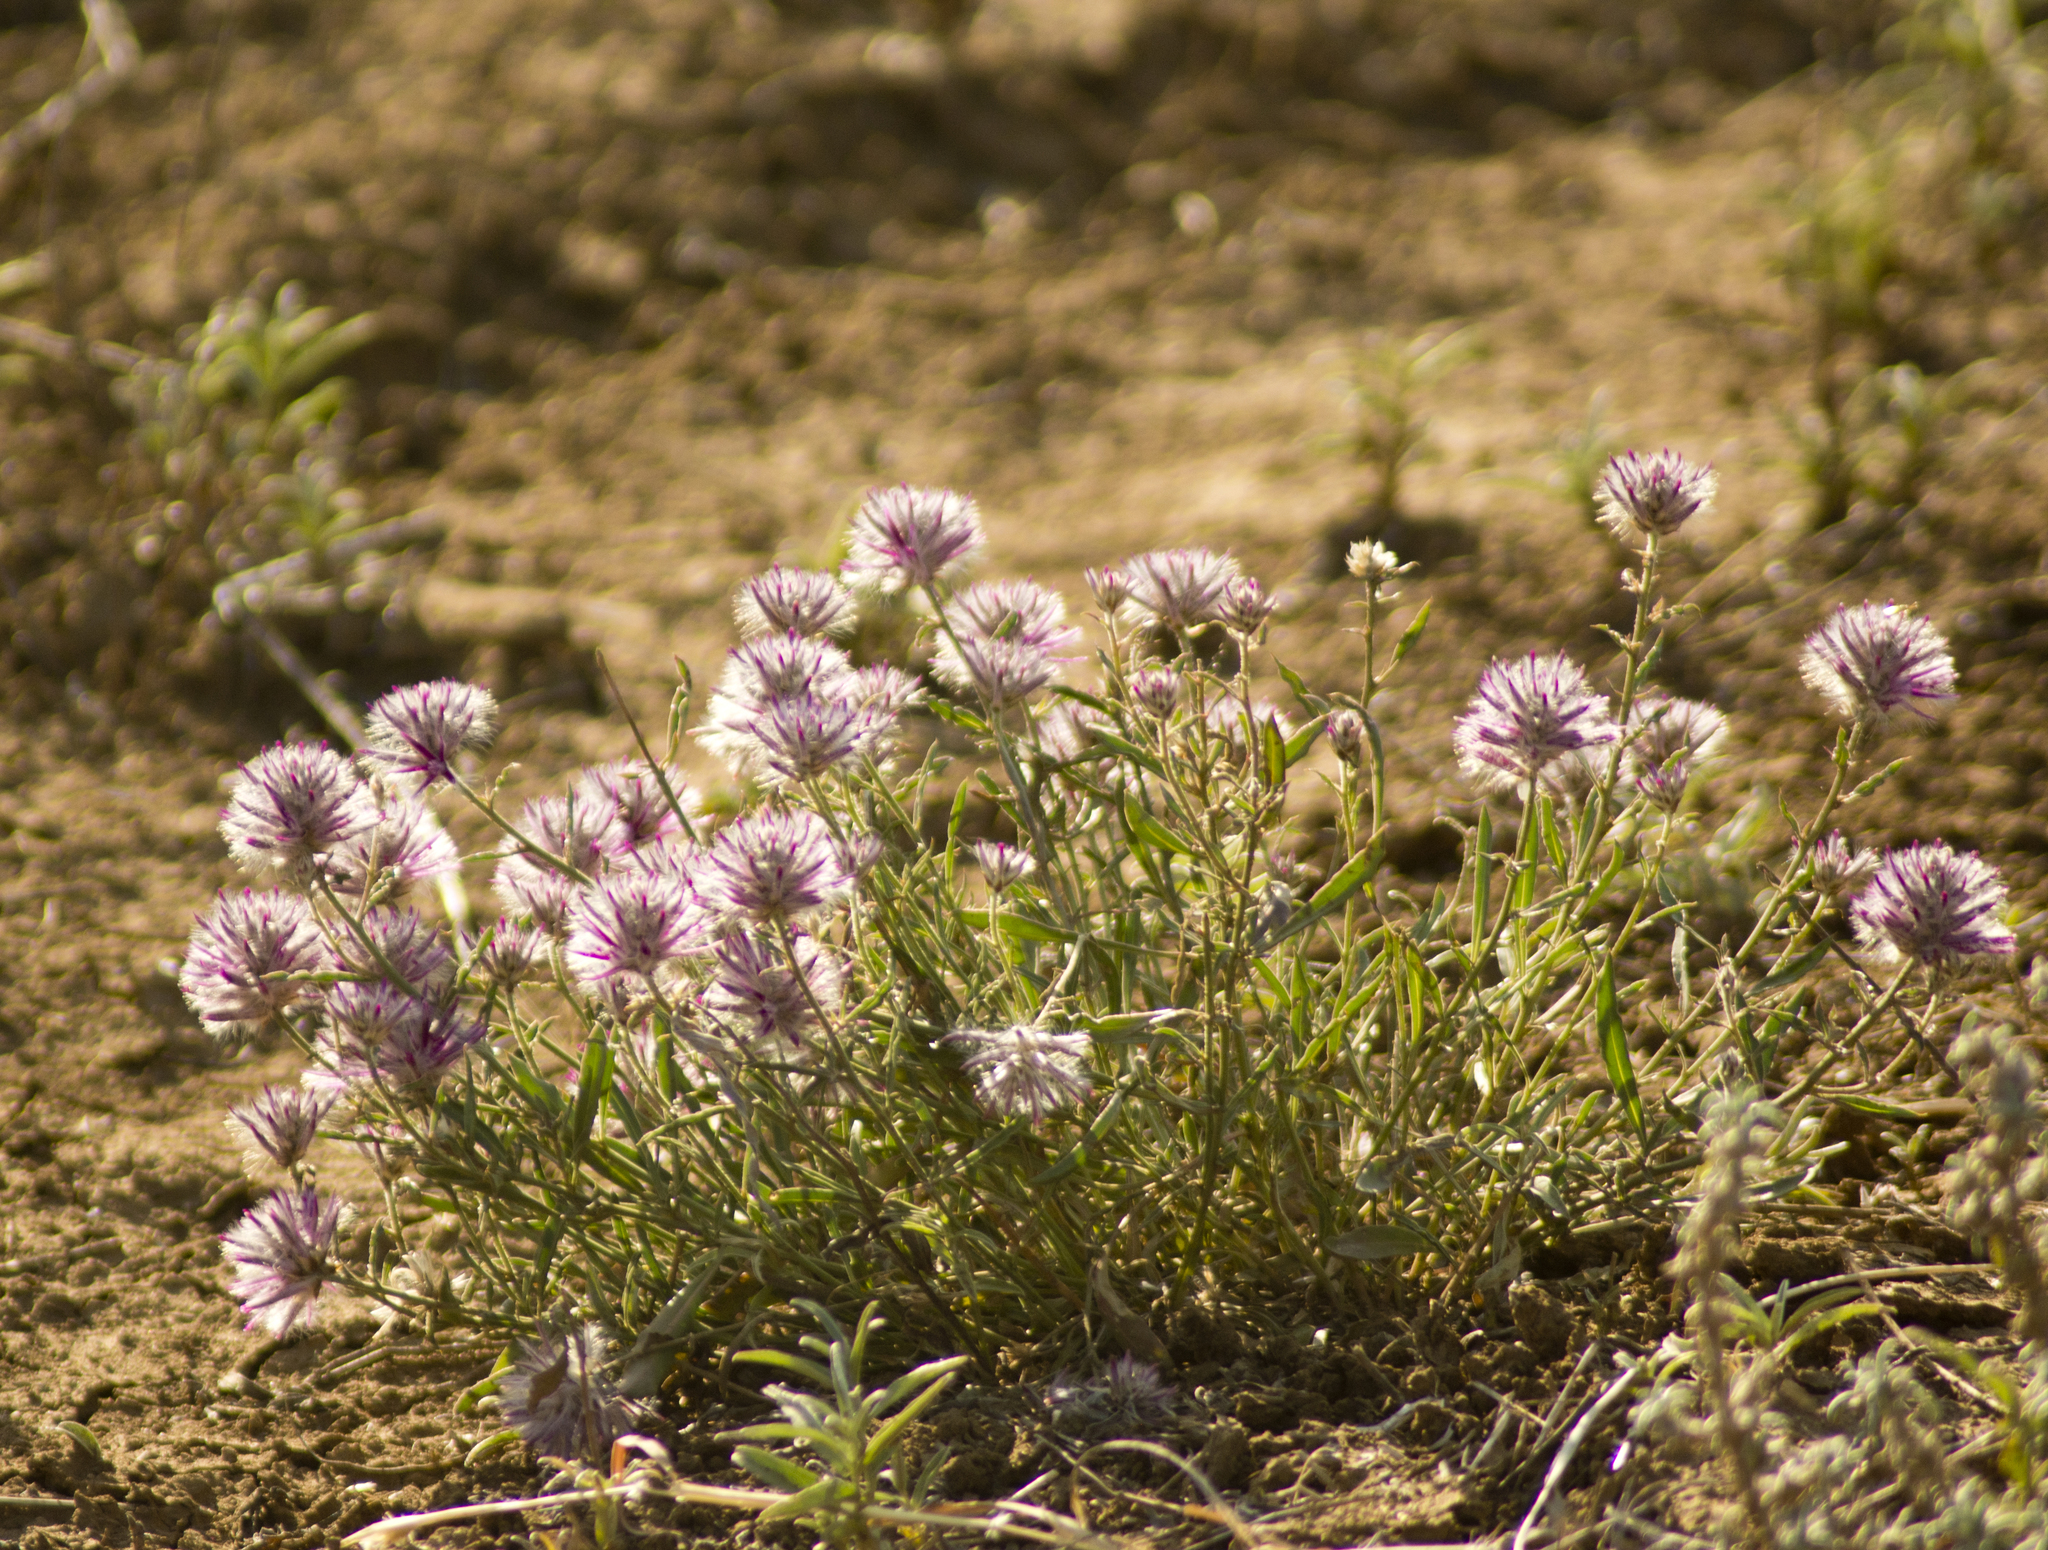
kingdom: Plantae
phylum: Tracheophyta
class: Magnoliopsida
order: Caryophyllales
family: Amaranthaceae
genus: Ptilotus
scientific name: Ptilotus semilanatus
